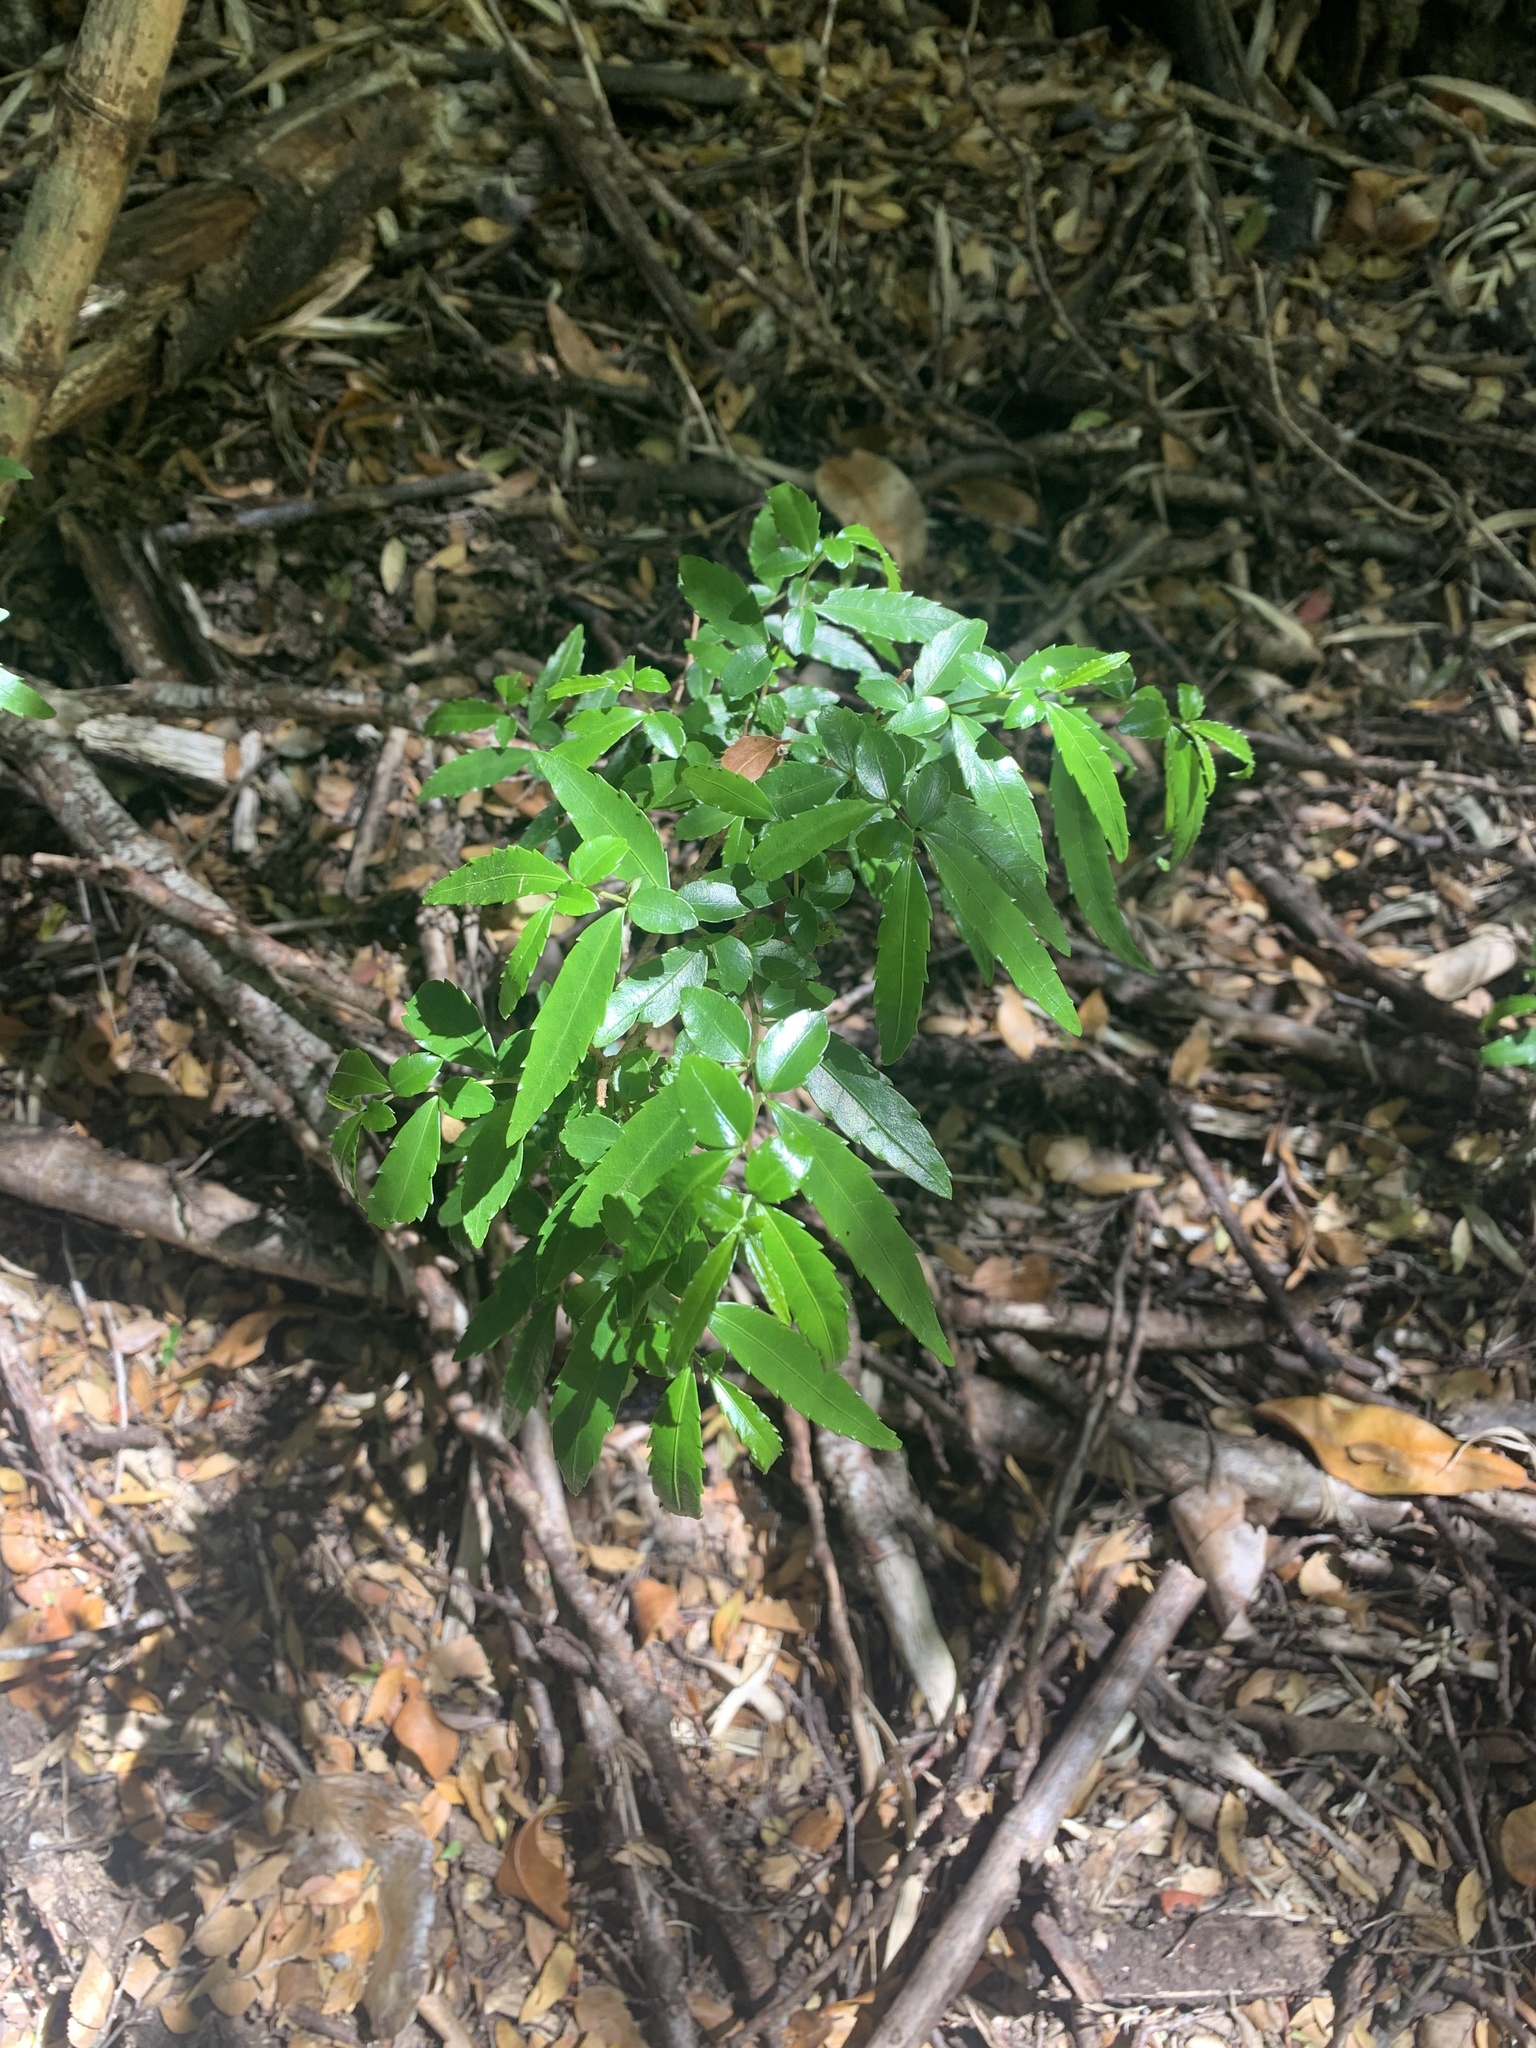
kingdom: Plantae
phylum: Tracheophyta
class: Magnoliopsida
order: Malpighiales
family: Salicaceae
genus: Azara
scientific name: Azara lanceolata
